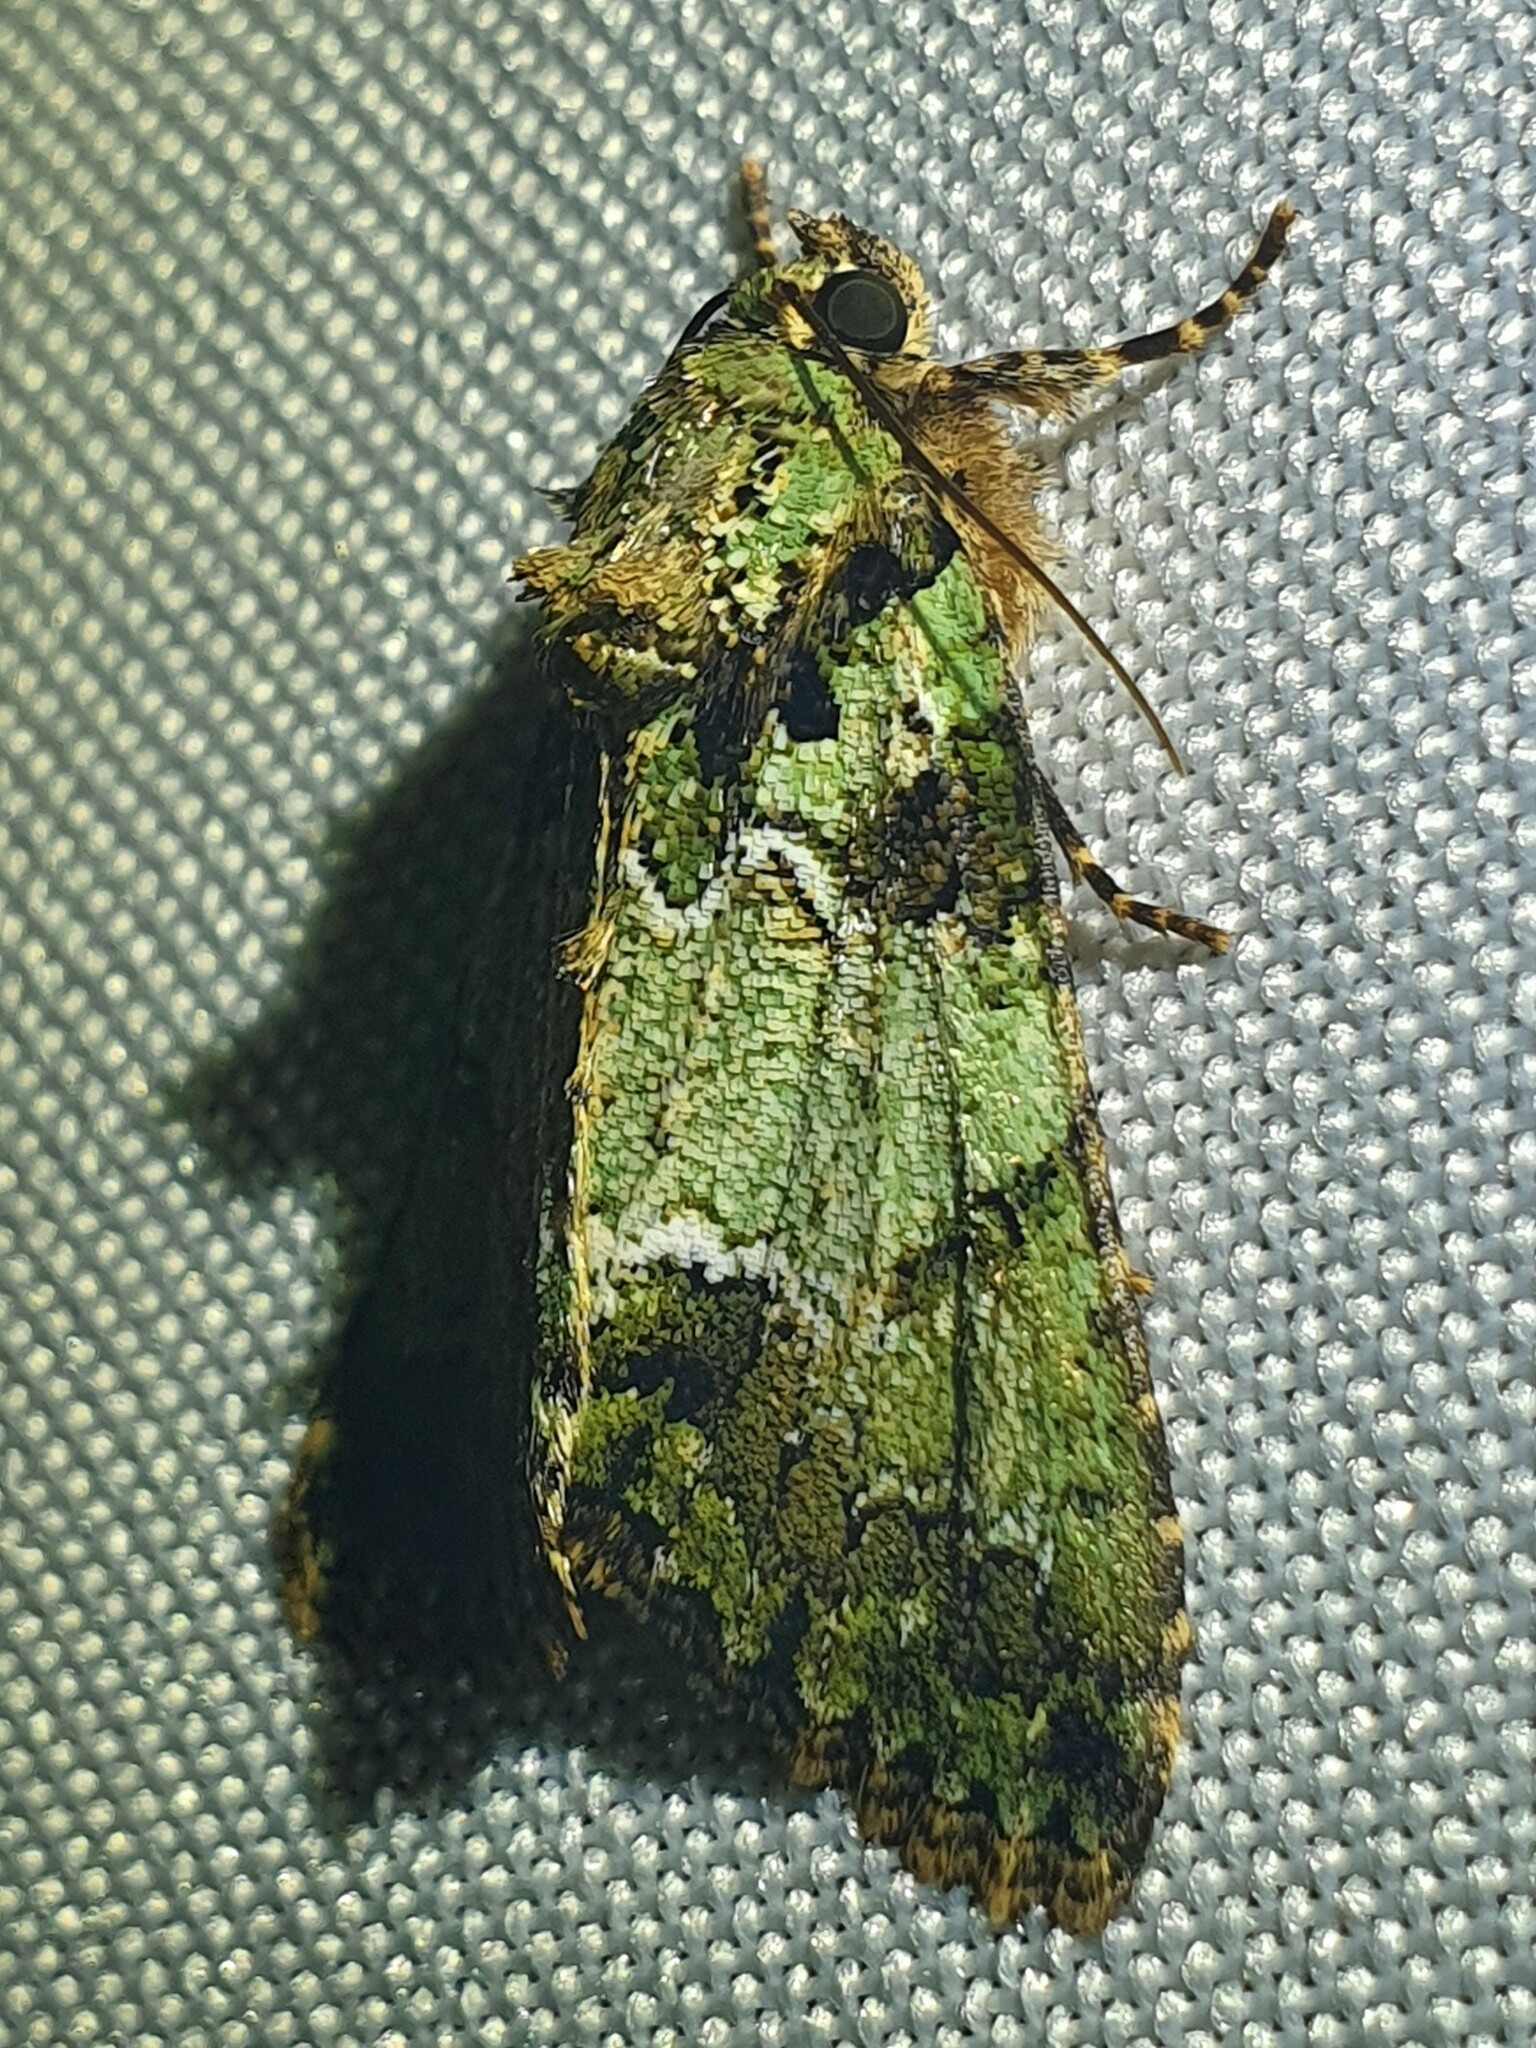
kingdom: Animalia
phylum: Arthropoda
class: Insecta
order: Lepidoptera
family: Noctuidae
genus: Polyphaenis
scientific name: Polyphaenis sericata
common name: Guernsey underwing
